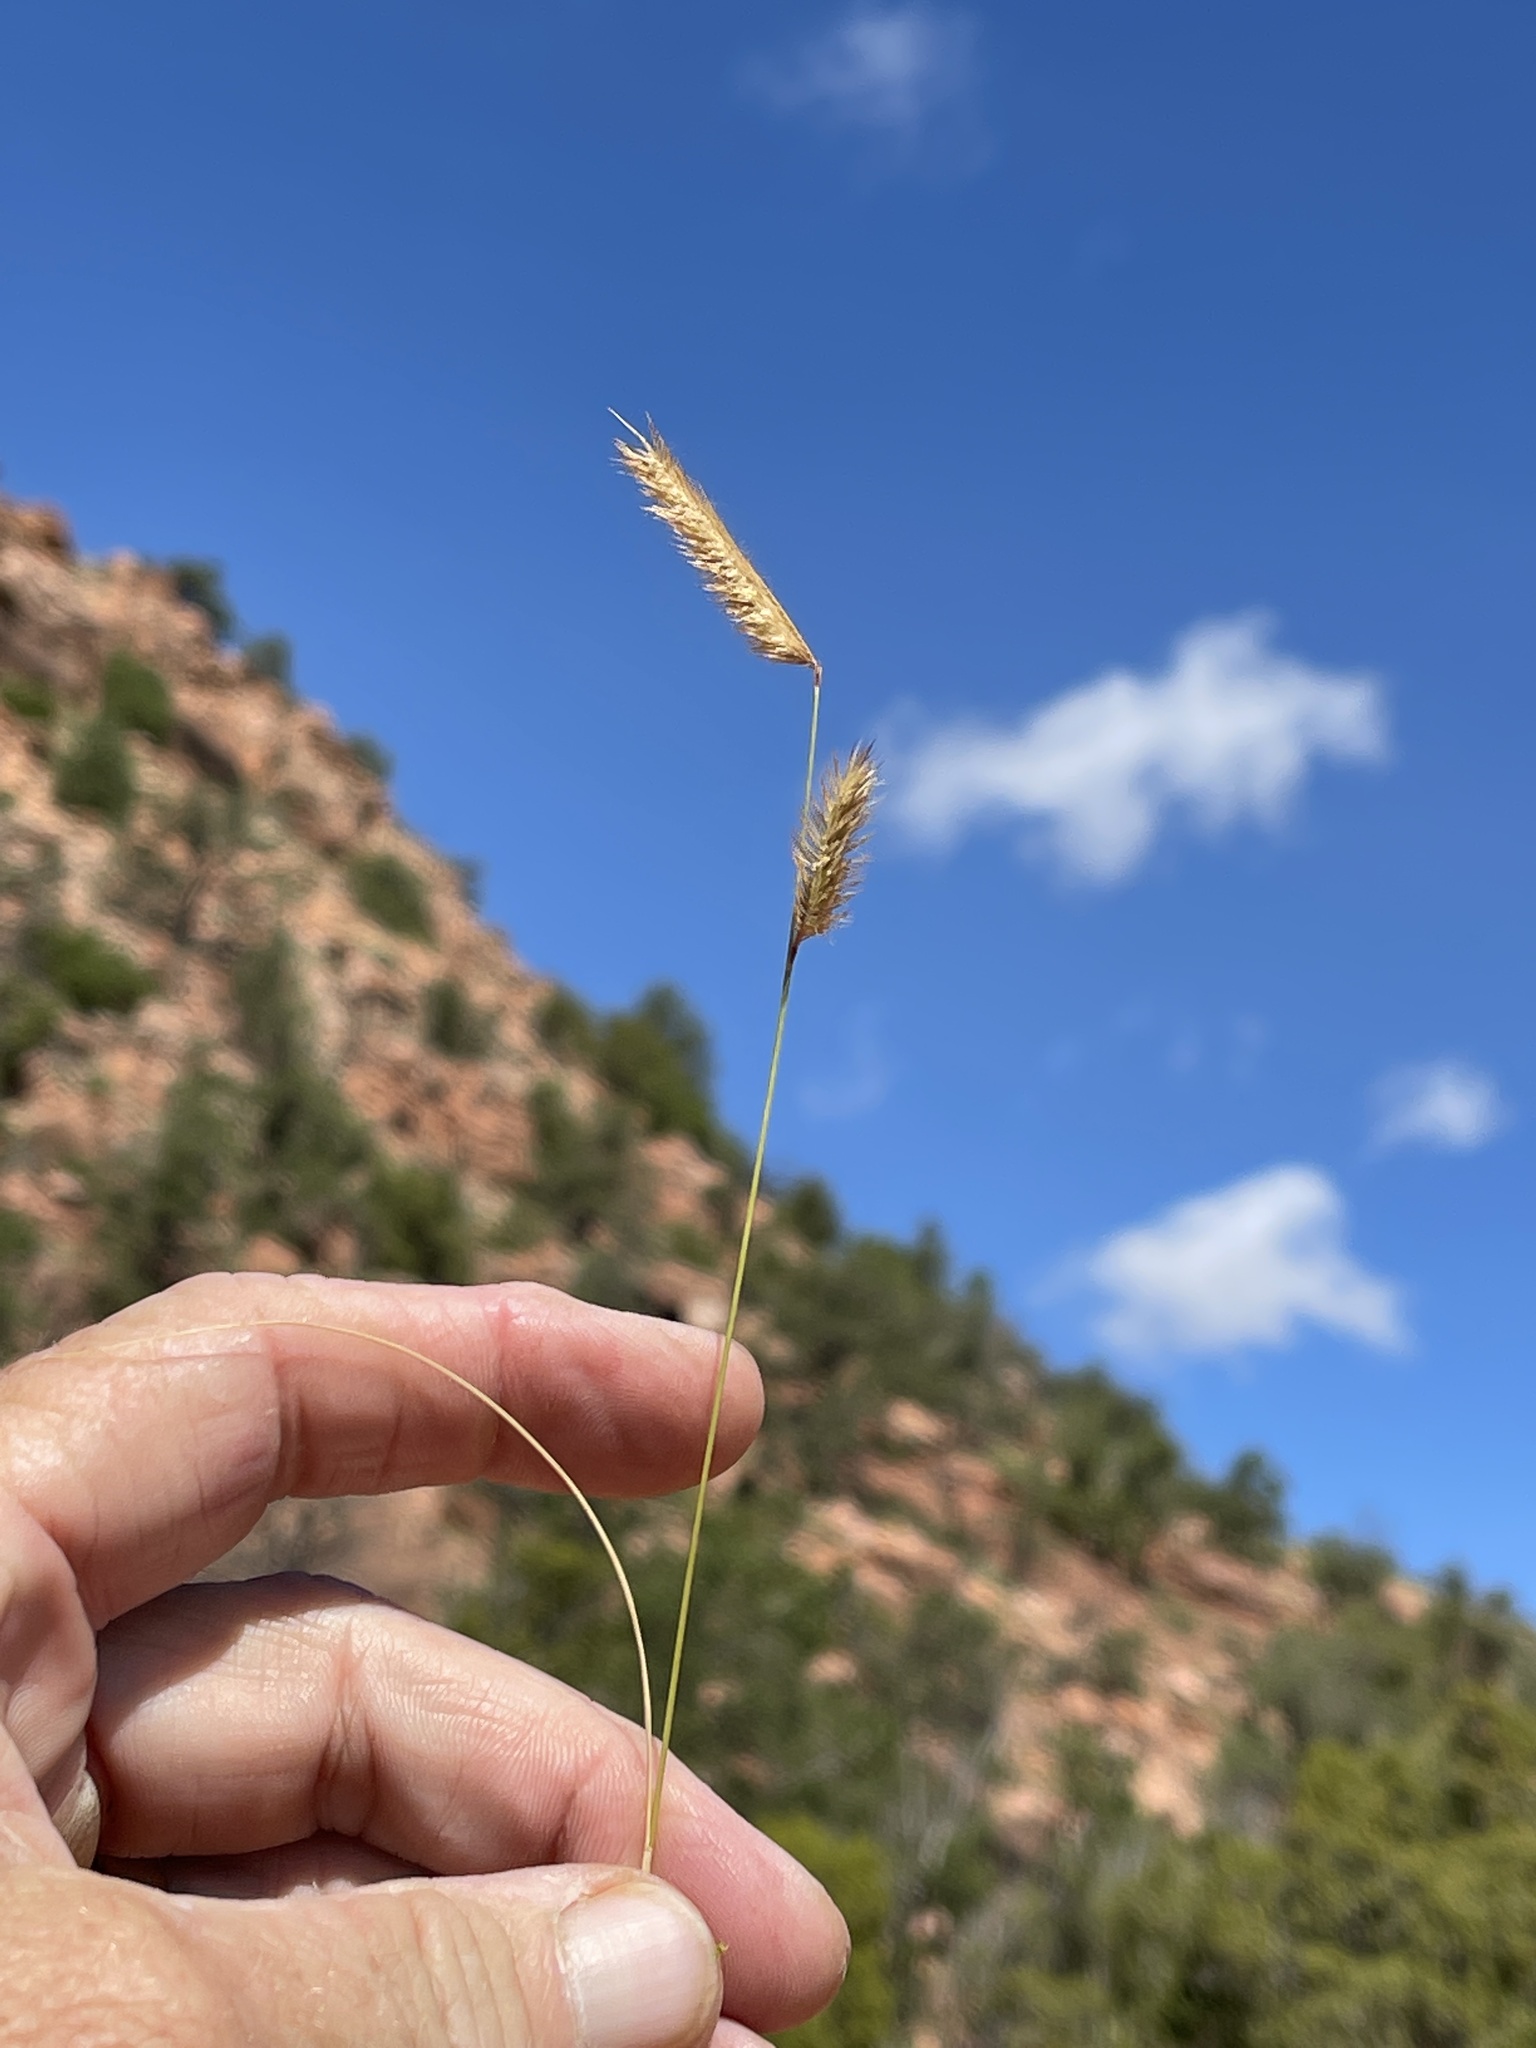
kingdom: Plantae
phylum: Tracheophyta
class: Liliopsida
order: Poales
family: Poaceae
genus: Bouteloua
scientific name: Bouteloua hirsuta
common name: Hairy grama
